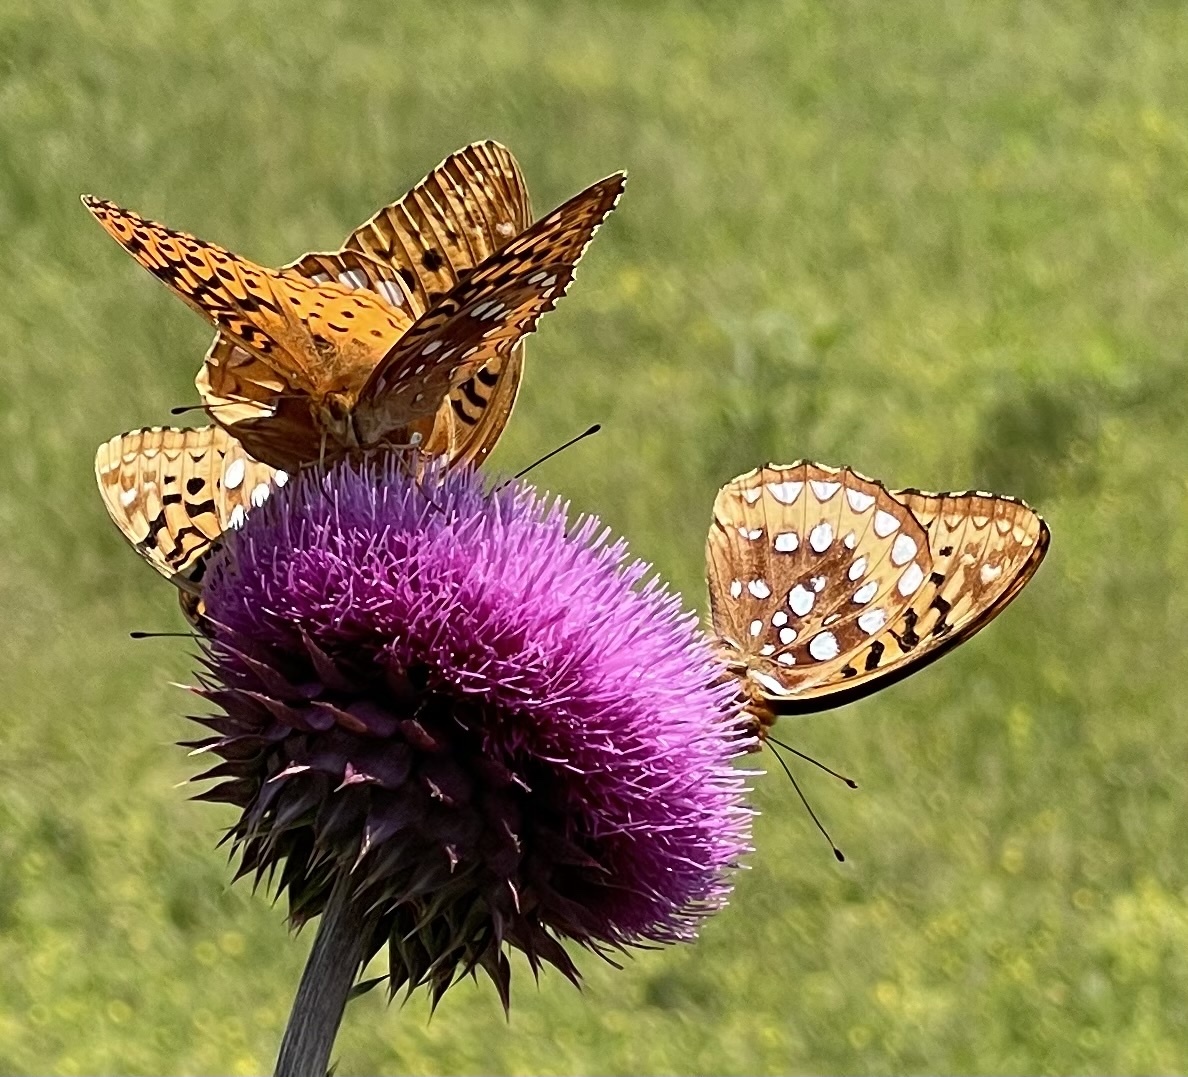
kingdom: Animalia
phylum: Arthropoda
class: Insecta
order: Lepidoptera
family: Nymphalidae
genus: Speyeria
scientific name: Speyeria cybele
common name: Great spangled fritillary
